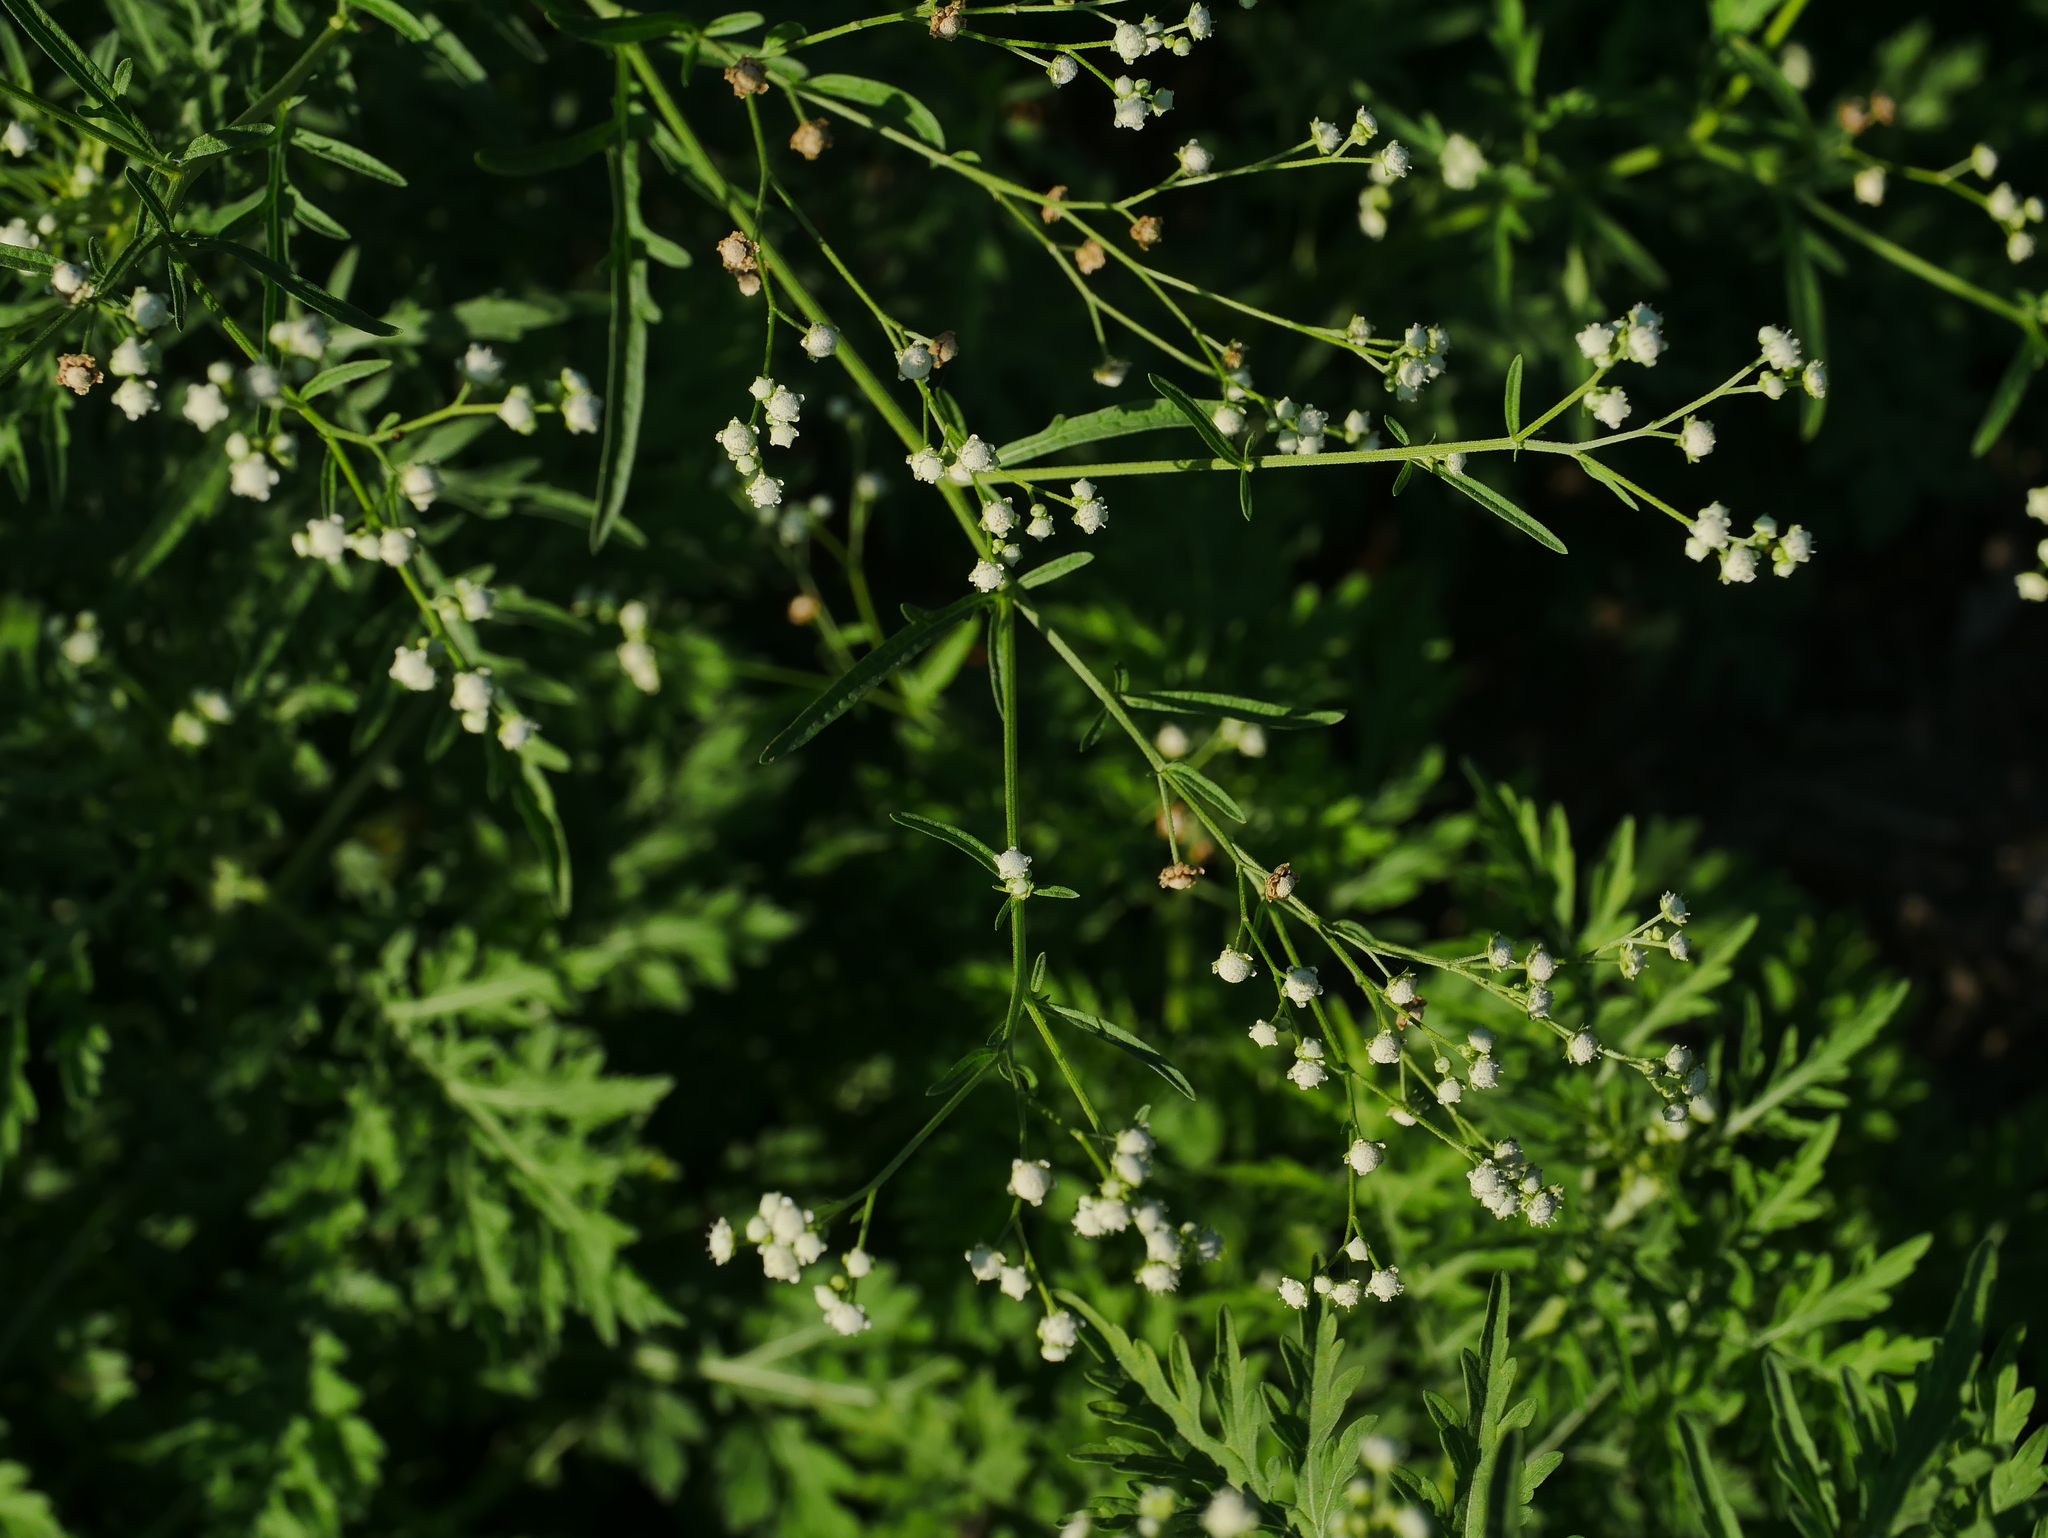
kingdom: Plantae
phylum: Tracheophyta
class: Magnoliopsida
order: Asterales
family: Asteraceae
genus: Parthenium
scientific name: Parthenium hysterophorus
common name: Santa maria feverfew
